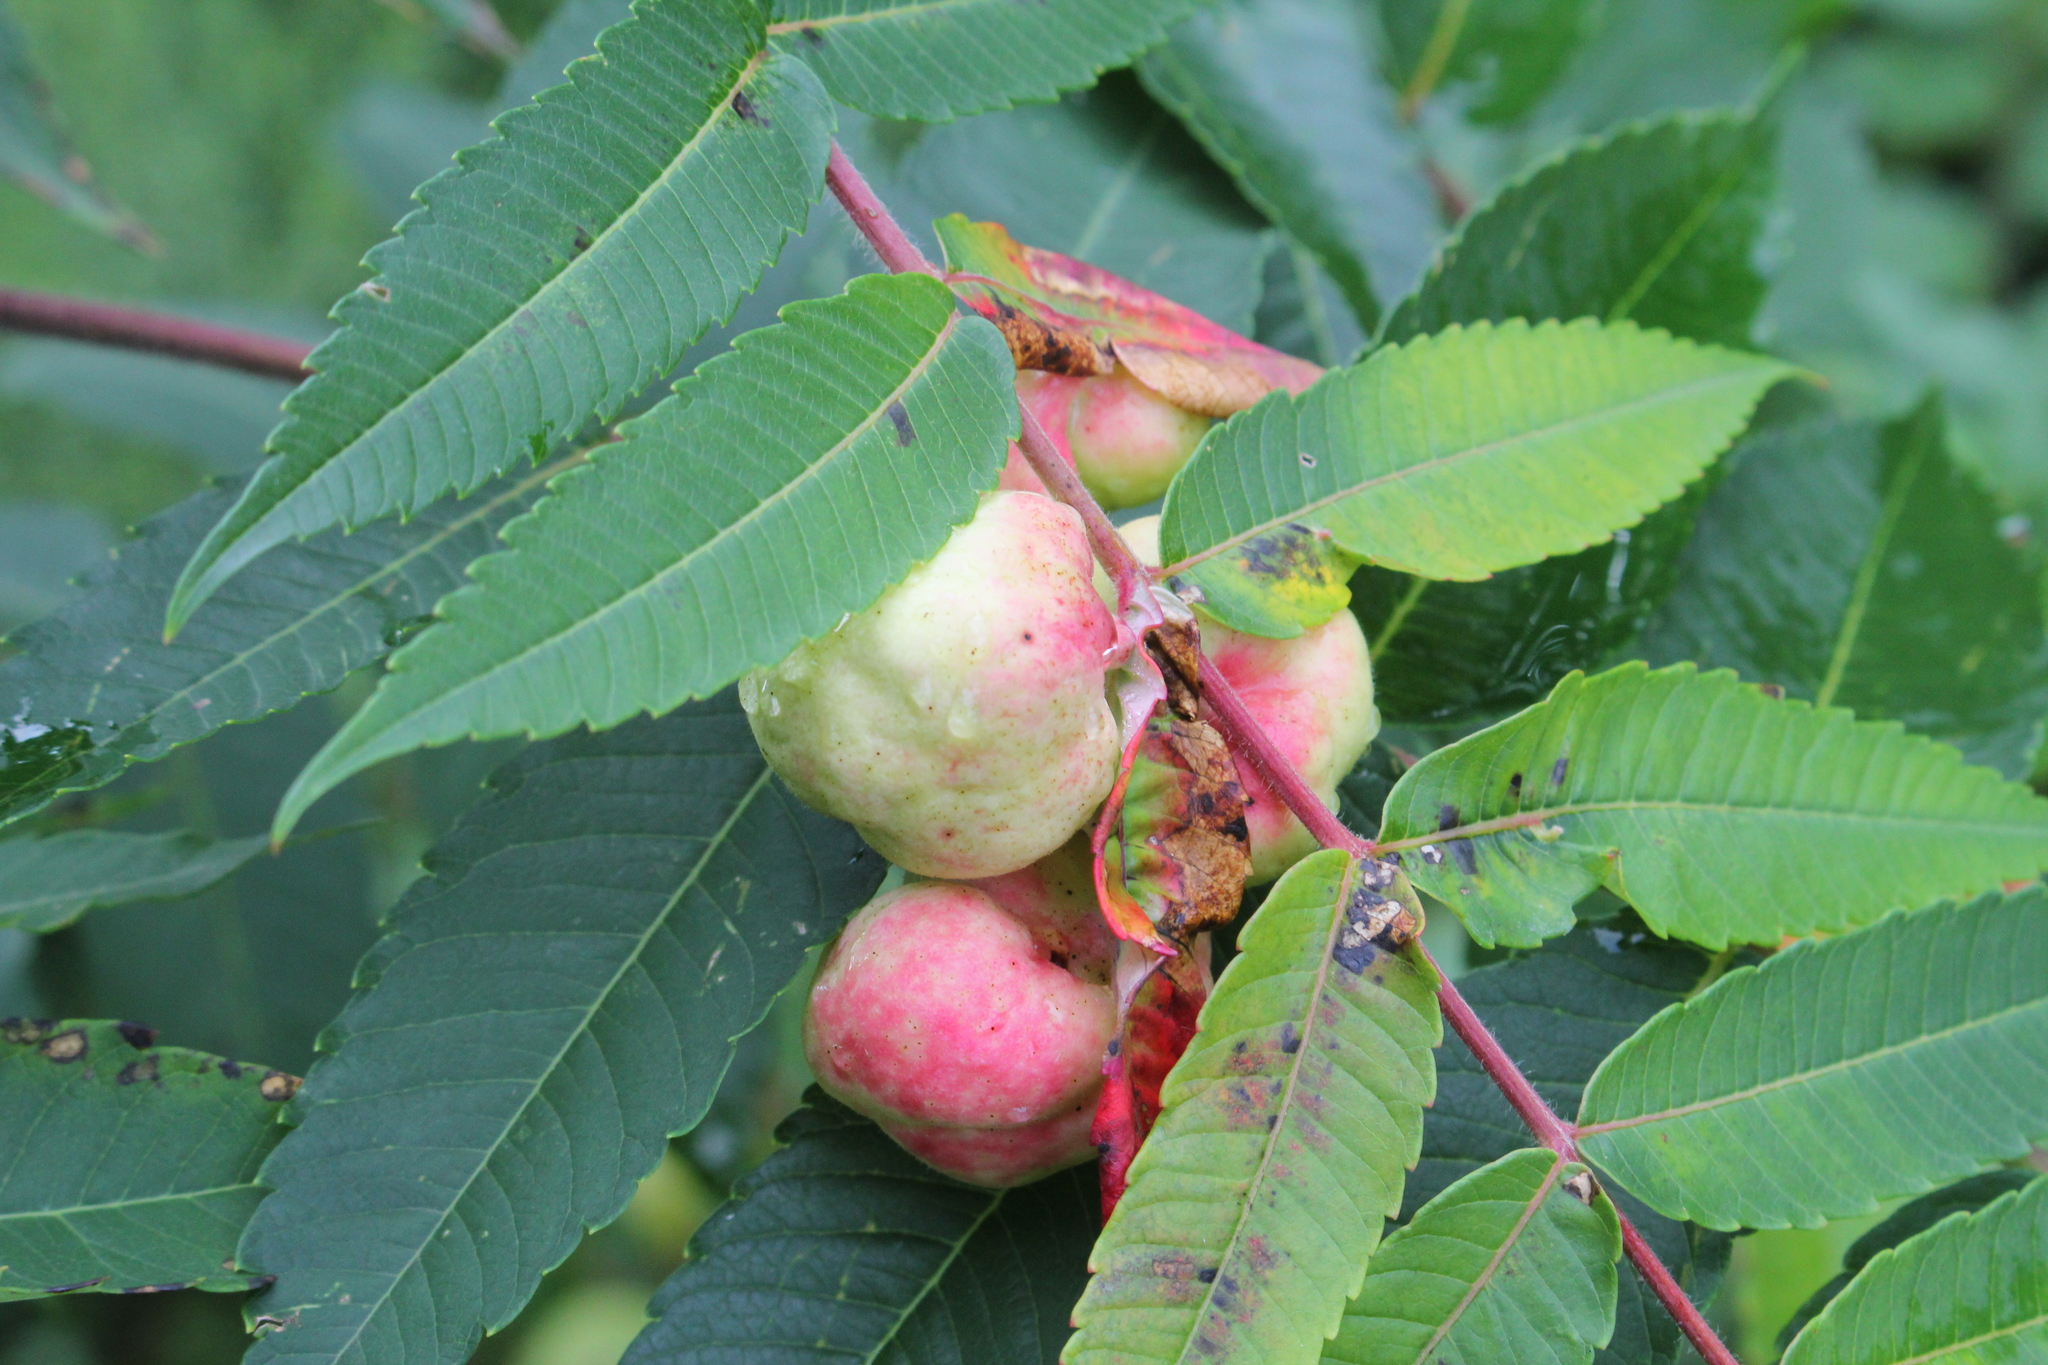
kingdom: Animalia
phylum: Arthropoda
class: Insecta
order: Hemiptera
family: Aphididae
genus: Melaphis
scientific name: Melaphis rhois
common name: Sumac gall aphid
